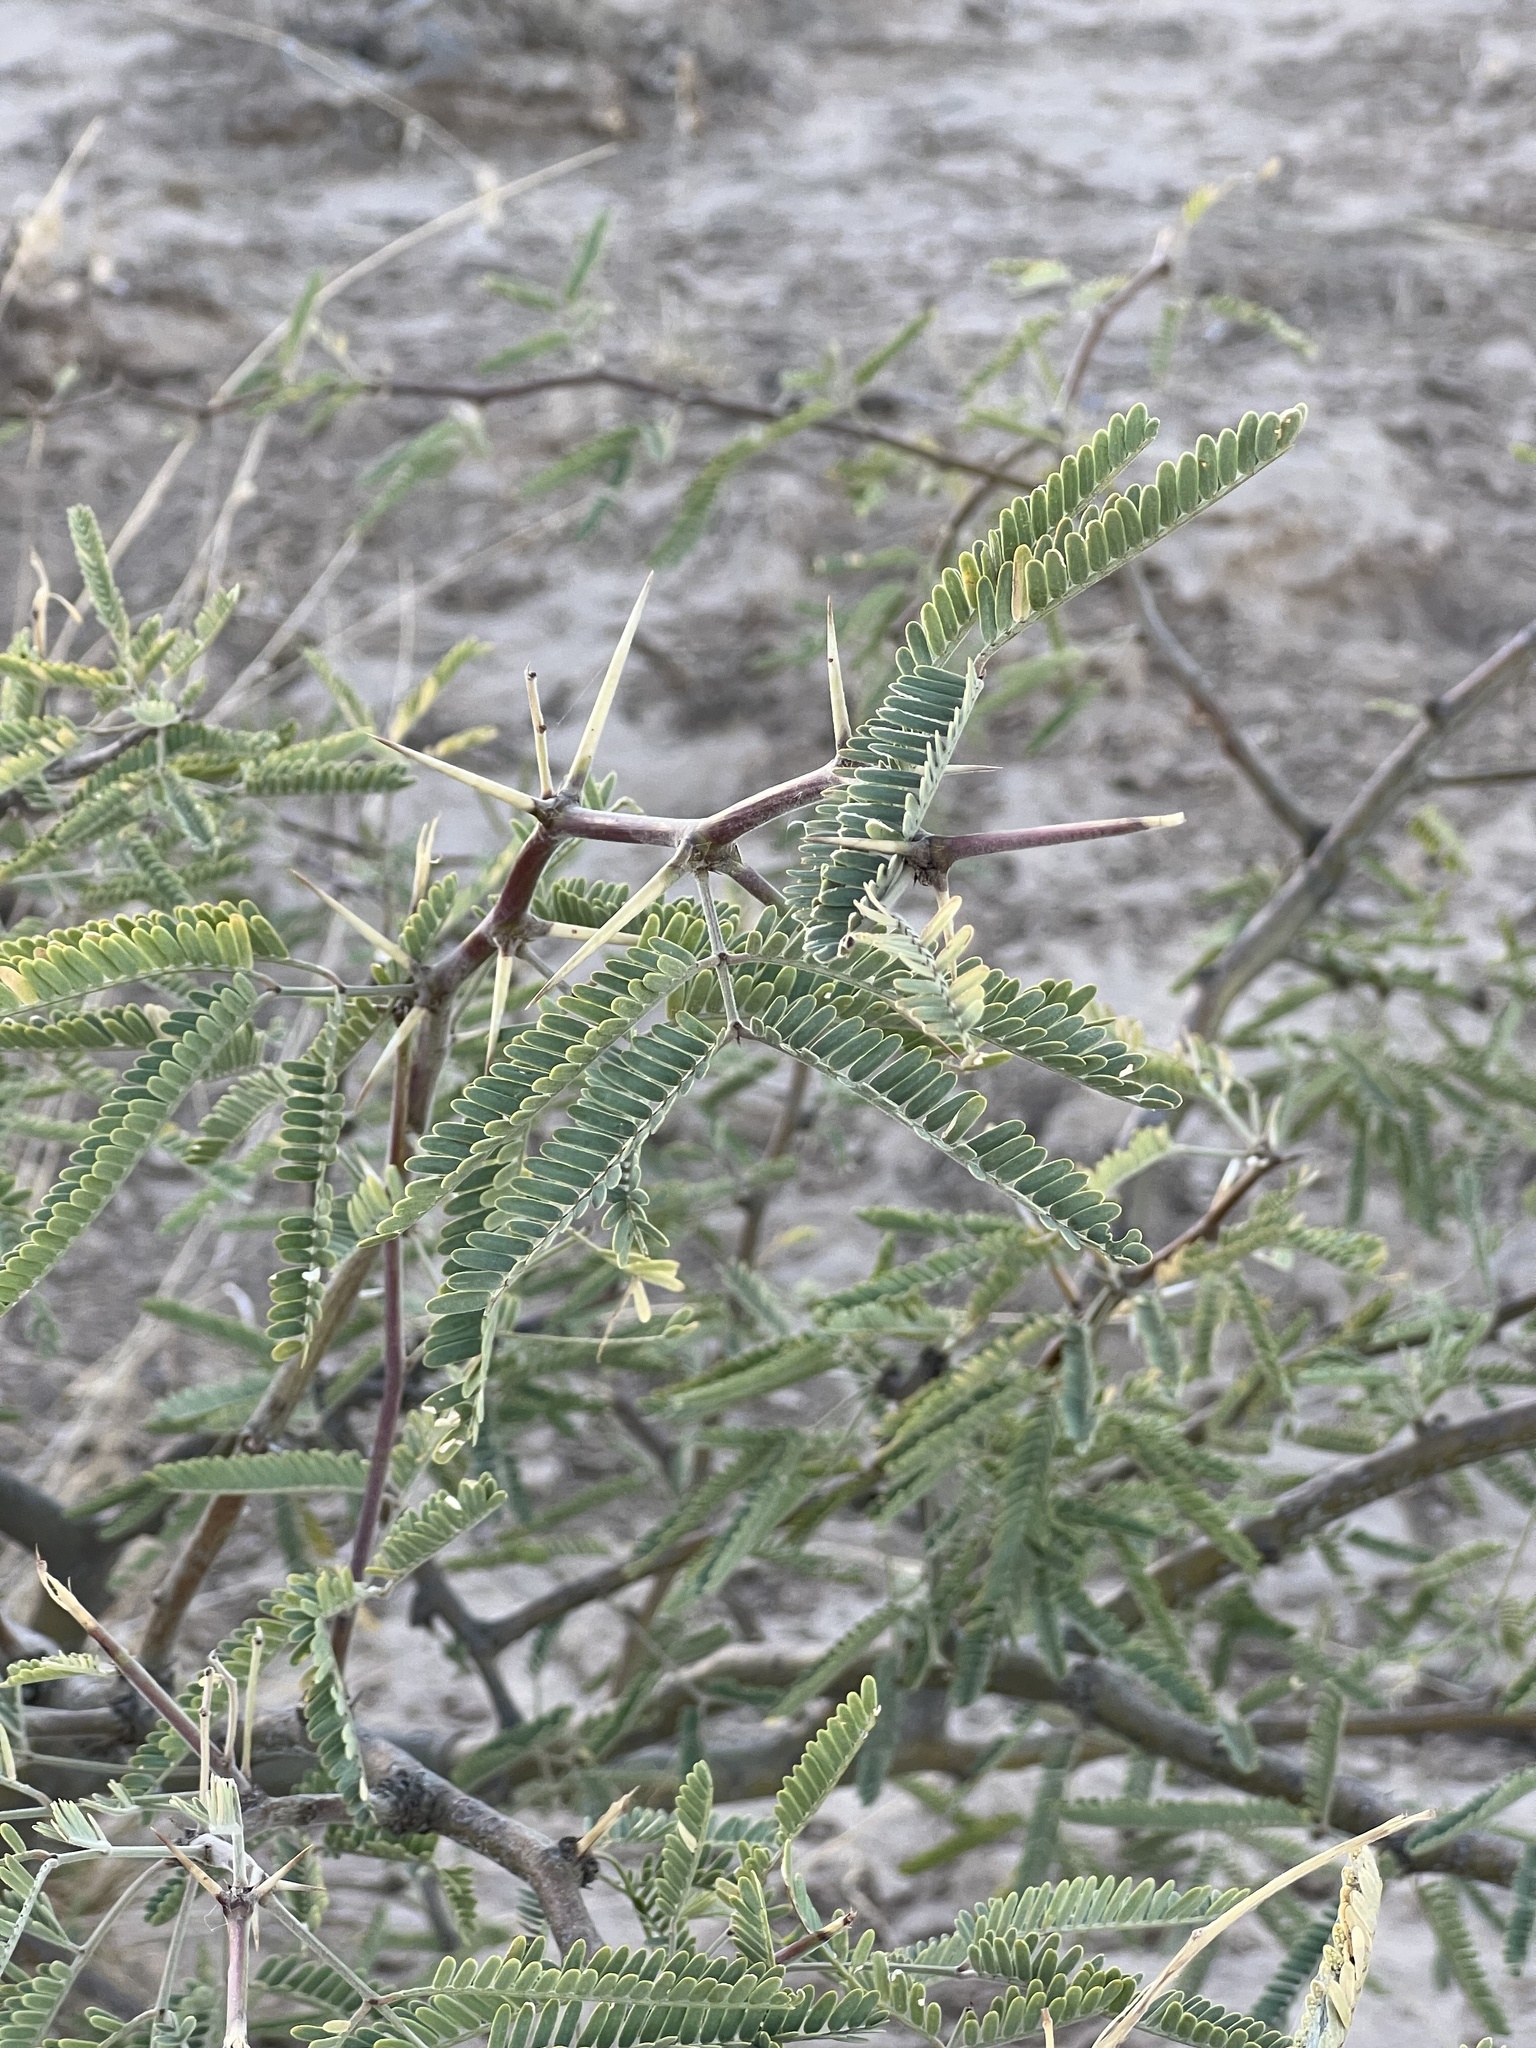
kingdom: Plantae
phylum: Tracheophyta
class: Magnoliopsida
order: Fabales
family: Fabaceae
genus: Prosopis
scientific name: Prosopis velutina
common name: Velvet mesquite
